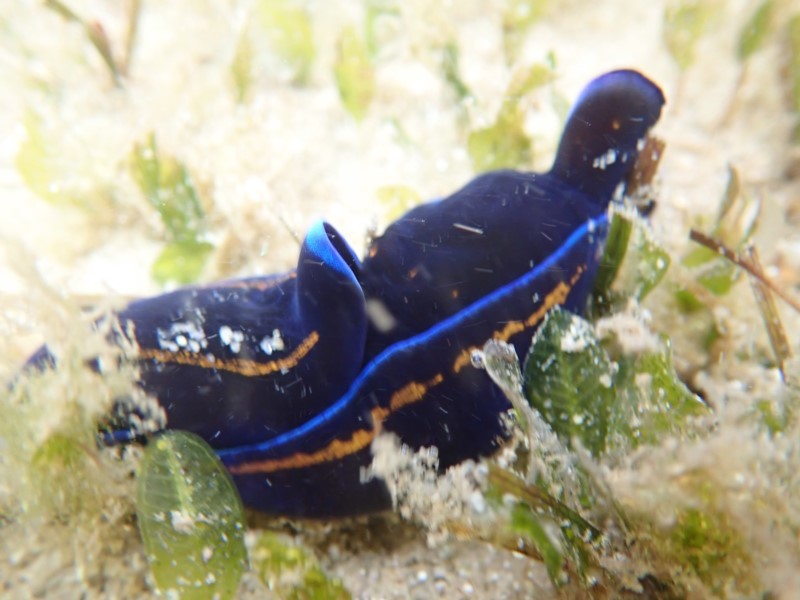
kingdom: Animalia
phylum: Mollusca
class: Gastropoda
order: Cephalaspidea
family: Aglajidae
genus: Philinopsis
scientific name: Philinopsis speciosa
